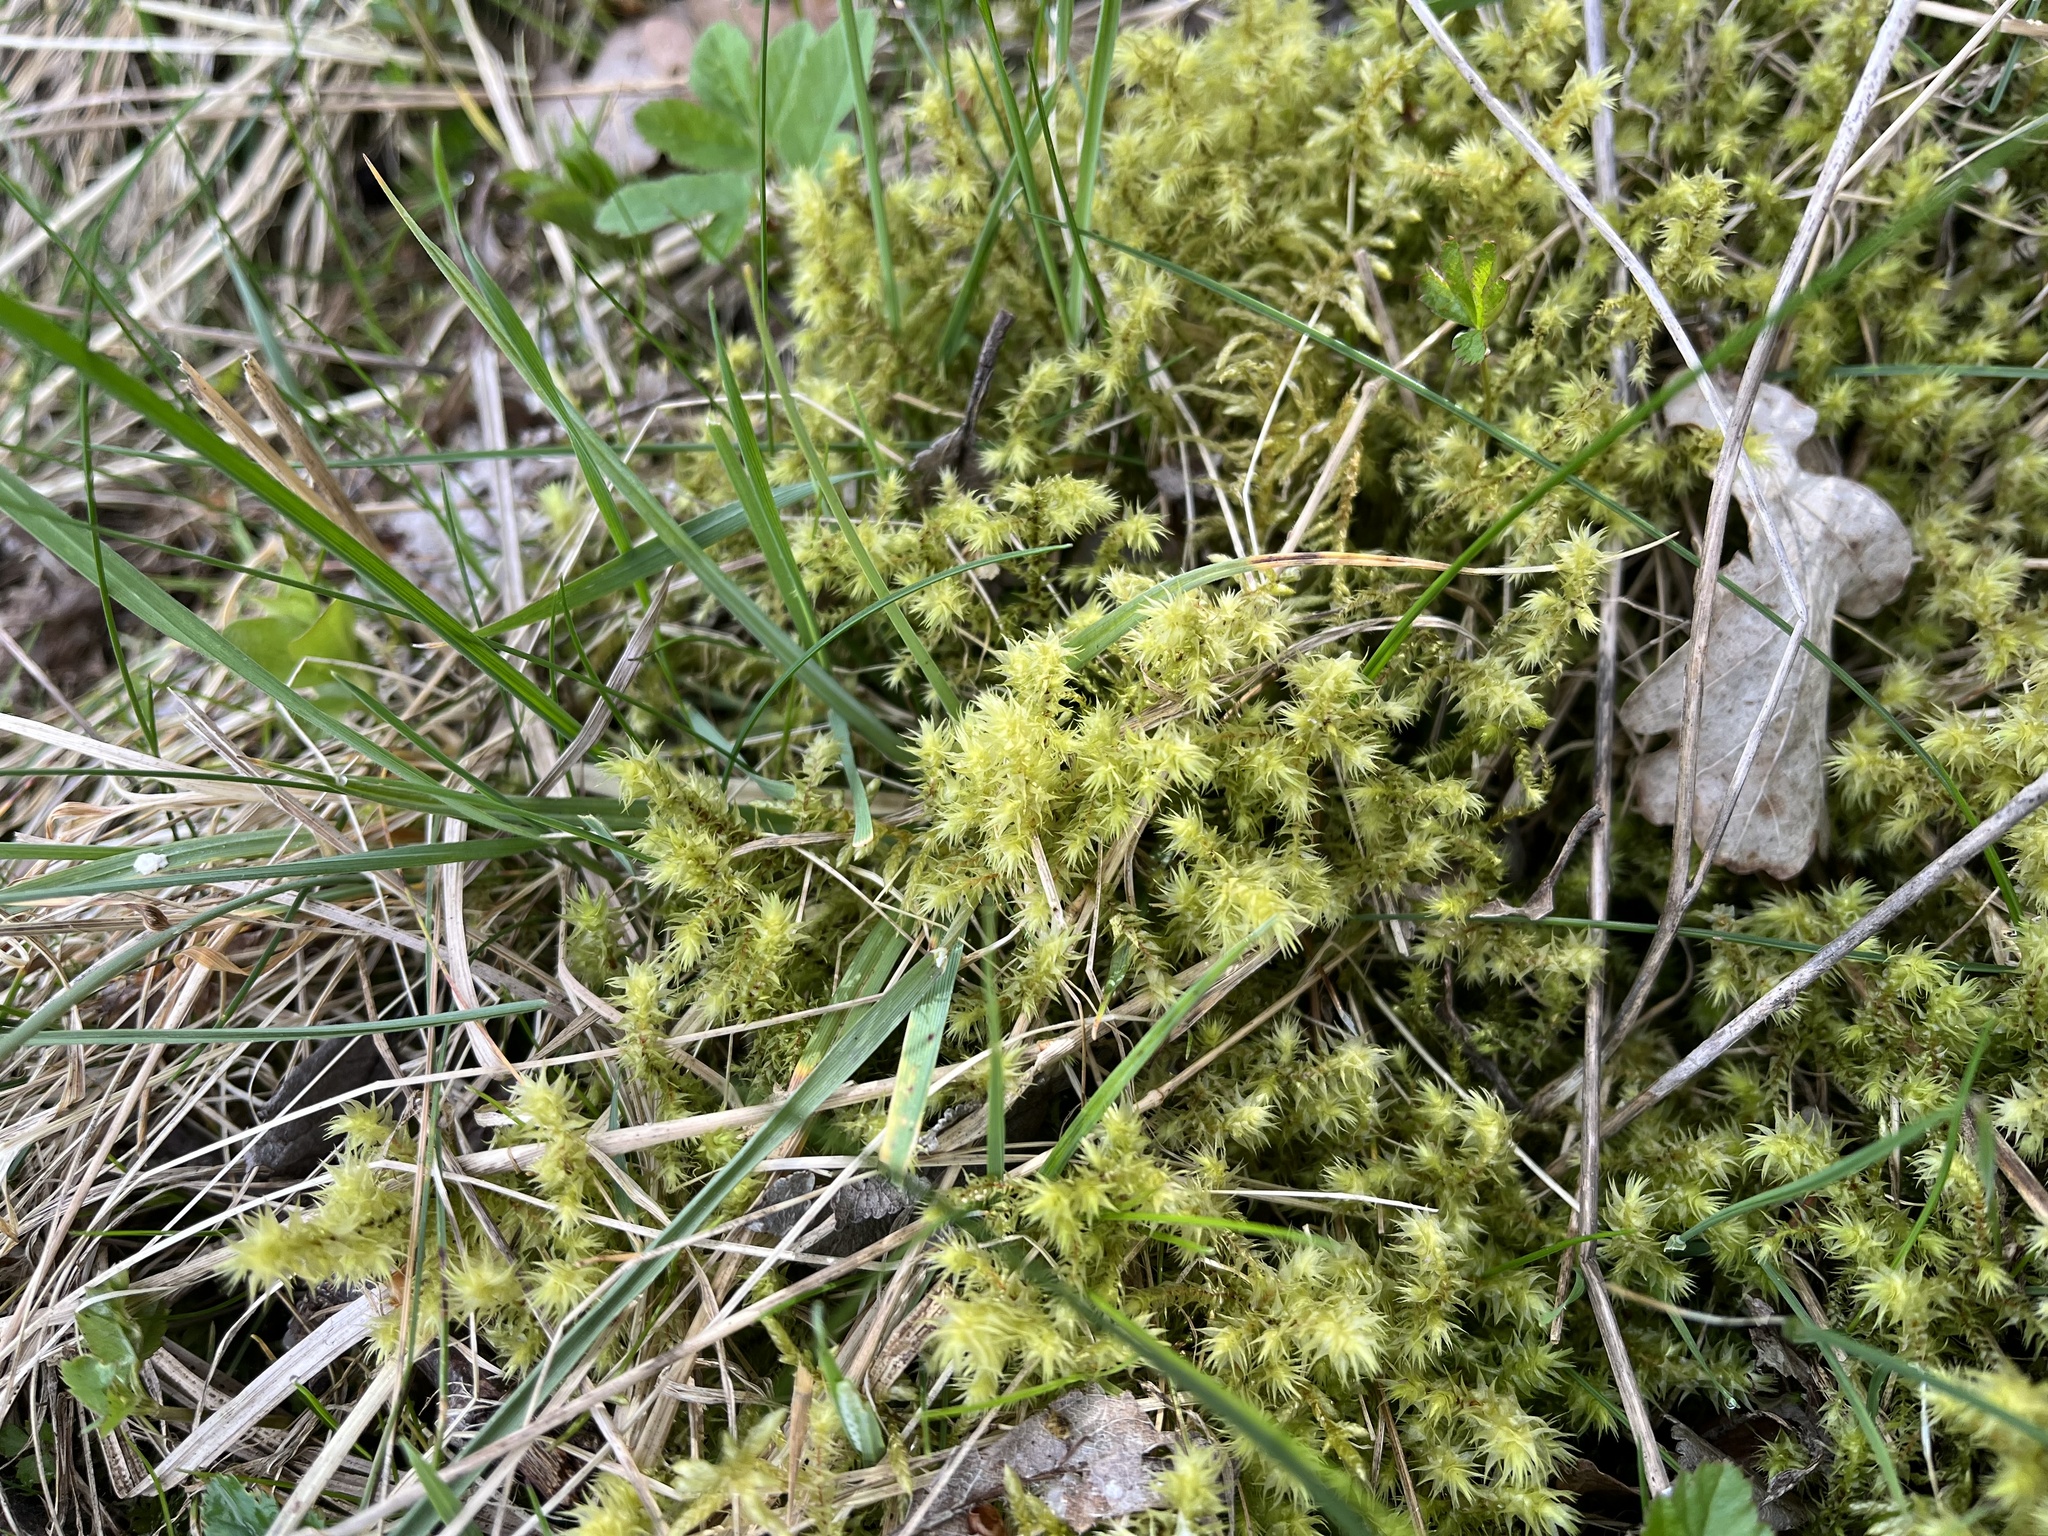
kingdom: Plantae
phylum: Bryophyta
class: Bryopsida
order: Hypnales
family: Hylocomiaceae
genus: Hylocomiadelphus
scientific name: Hylocomiadelphus triquetrus
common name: Rough goose neck moss
